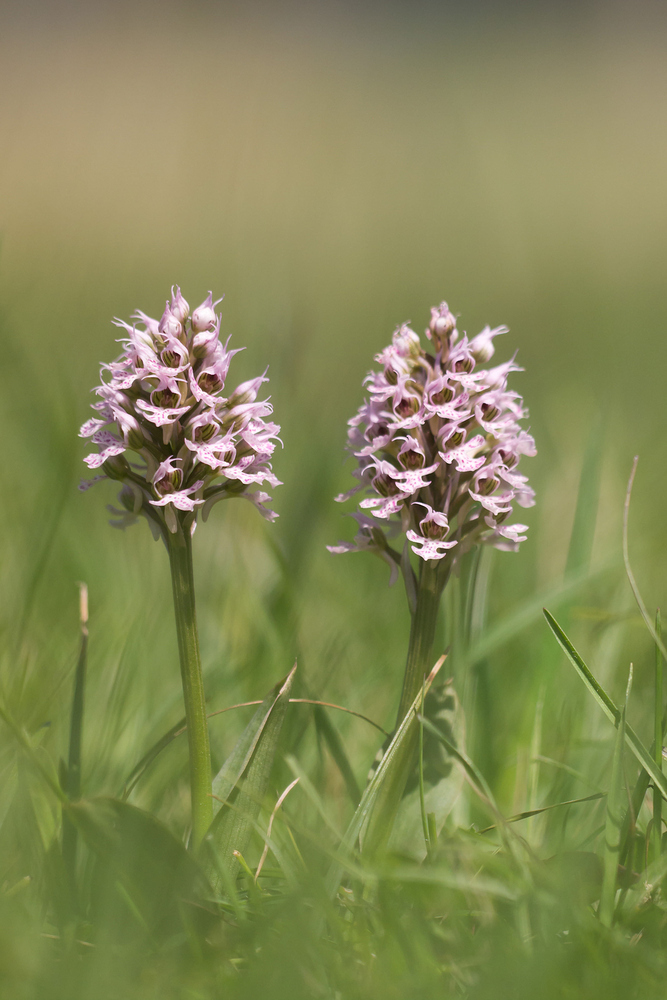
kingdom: Plantae
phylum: Tracheophyta
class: Liliopsida
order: Asparagales
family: Orchidaceae
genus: Neotinea
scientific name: Neotinea conica
